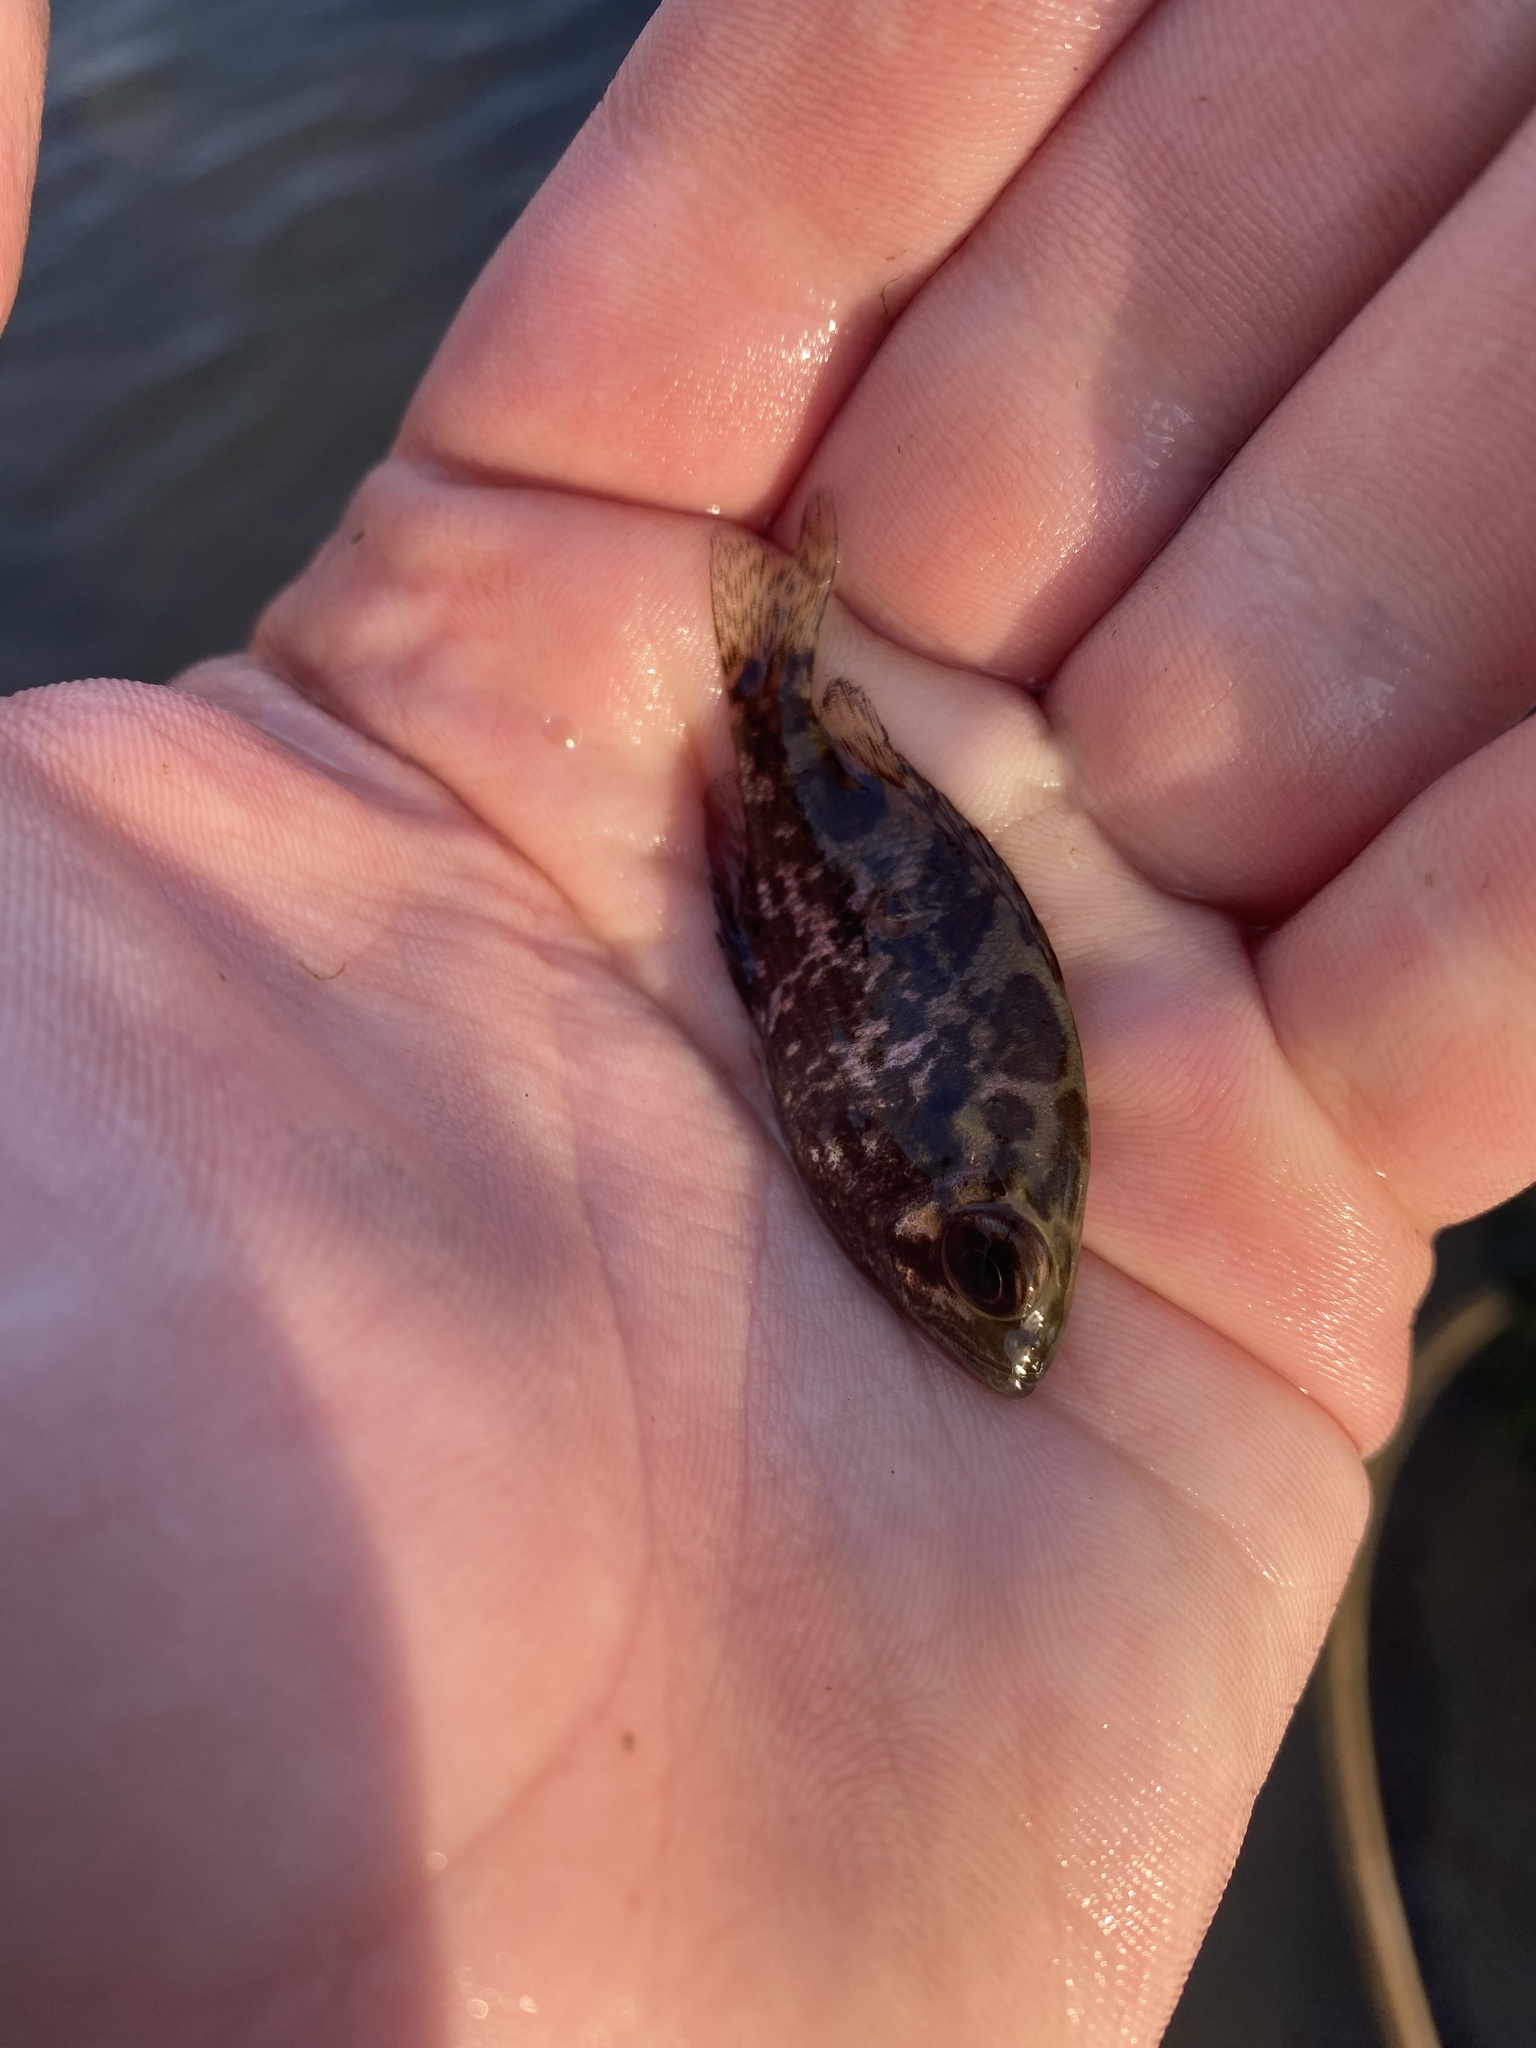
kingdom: Animalia
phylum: Chordata
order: Perciformes
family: Centrarchidae
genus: Ambloplites
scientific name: Ambloplites rupestris
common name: Rock bass
